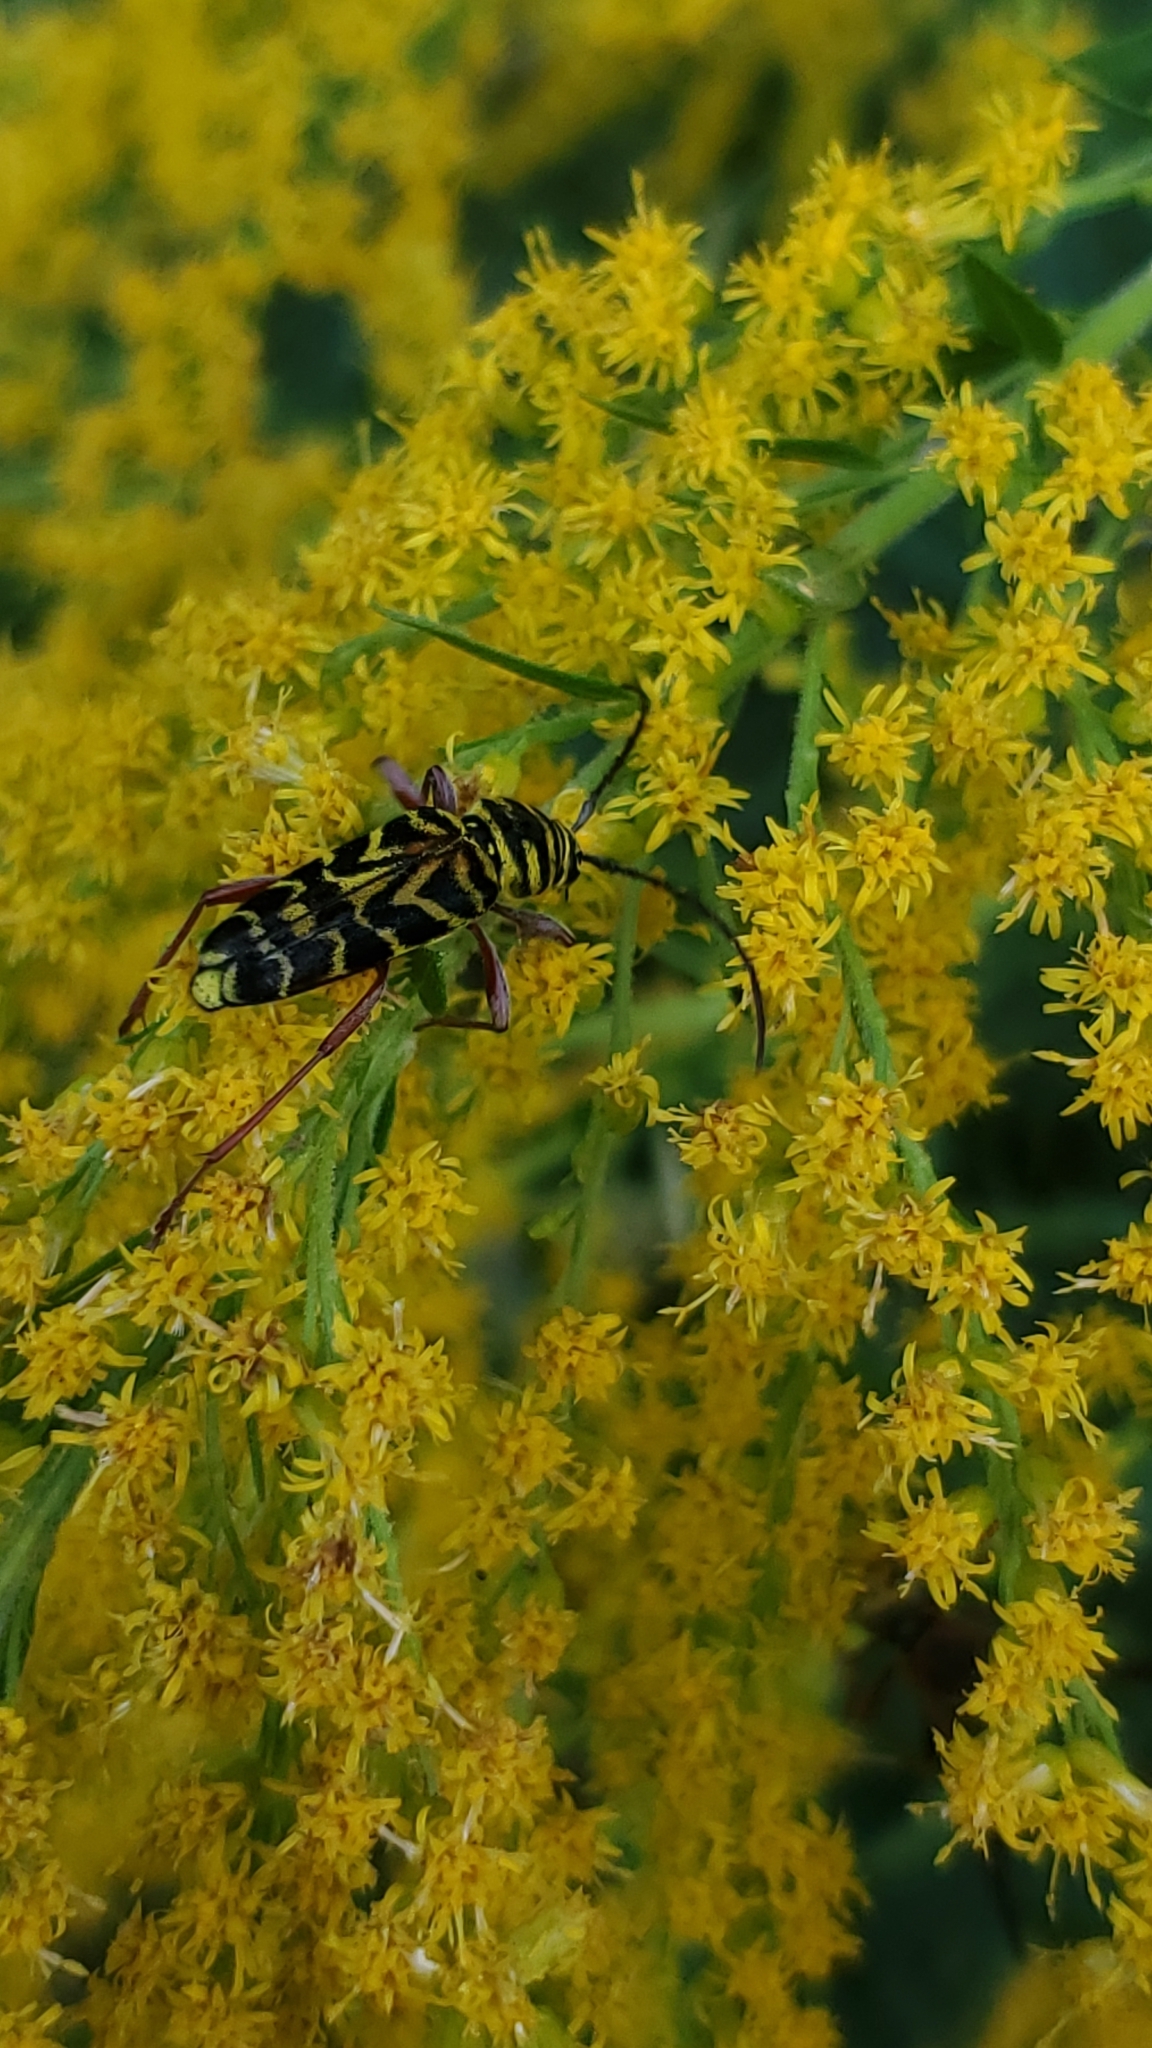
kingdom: Animalia
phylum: Arthropoda
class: Insecta
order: Coleoptera
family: Cerambycidae
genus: Megacyllene
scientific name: Megacyllene robiniae
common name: Locust borer
